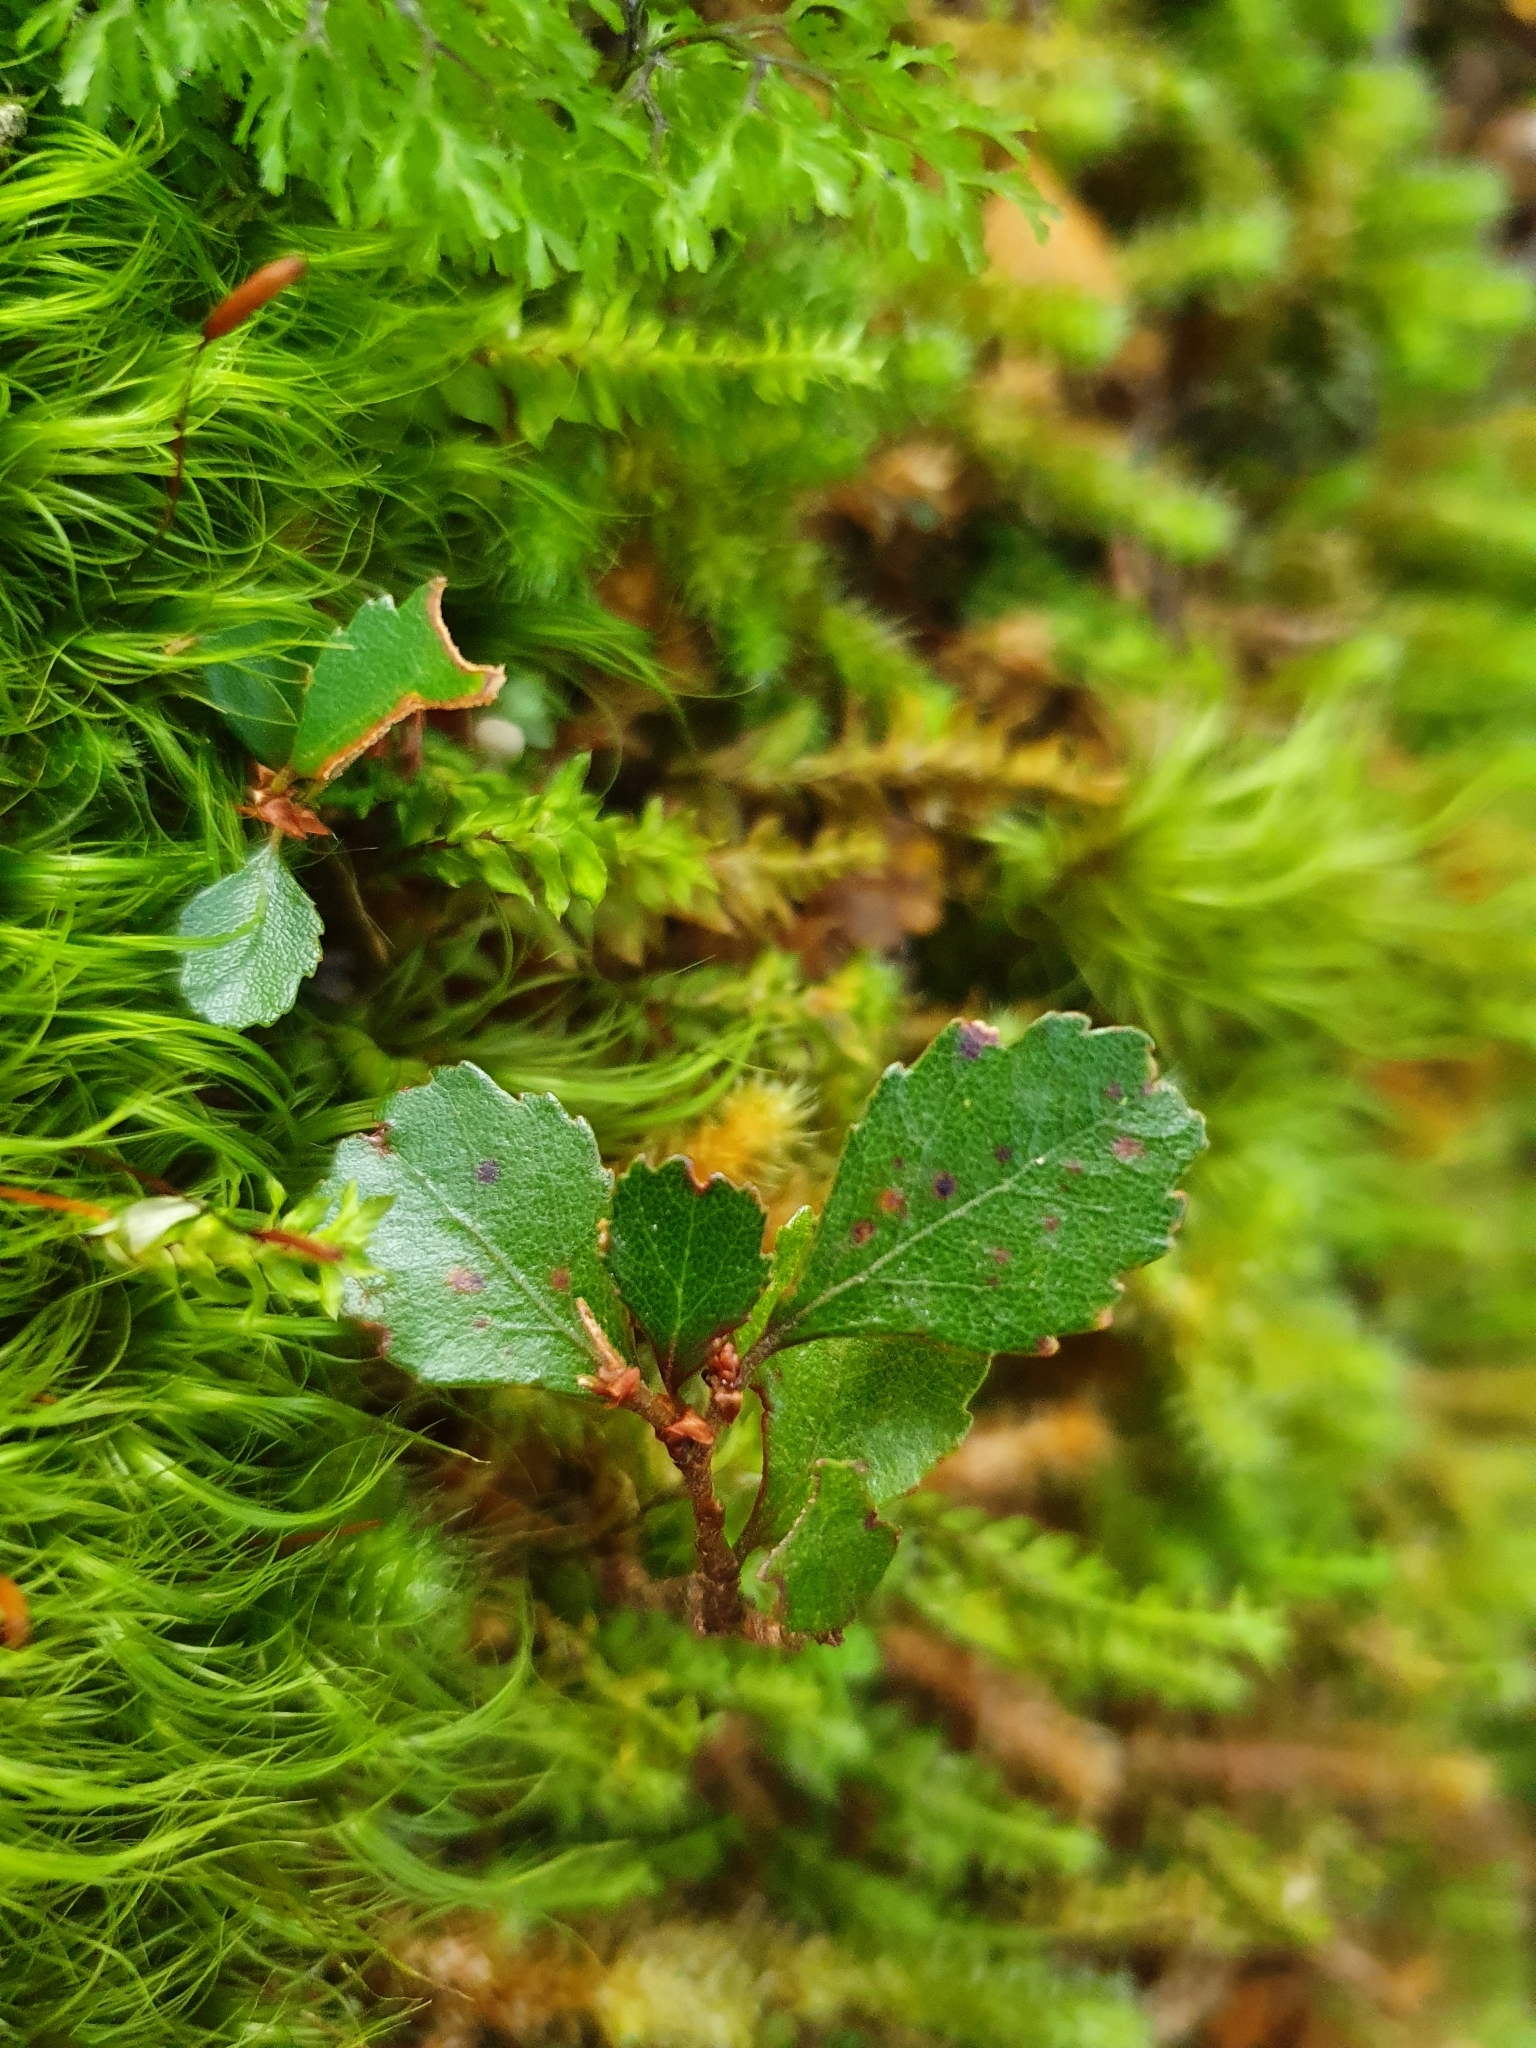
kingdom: Plantae
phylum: Tracheophyta
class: Magnoliopsida
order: Fagales
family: Nothofagaceae
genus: Nothofagus
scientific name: Nothofagus menziesii
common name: Silver beech
